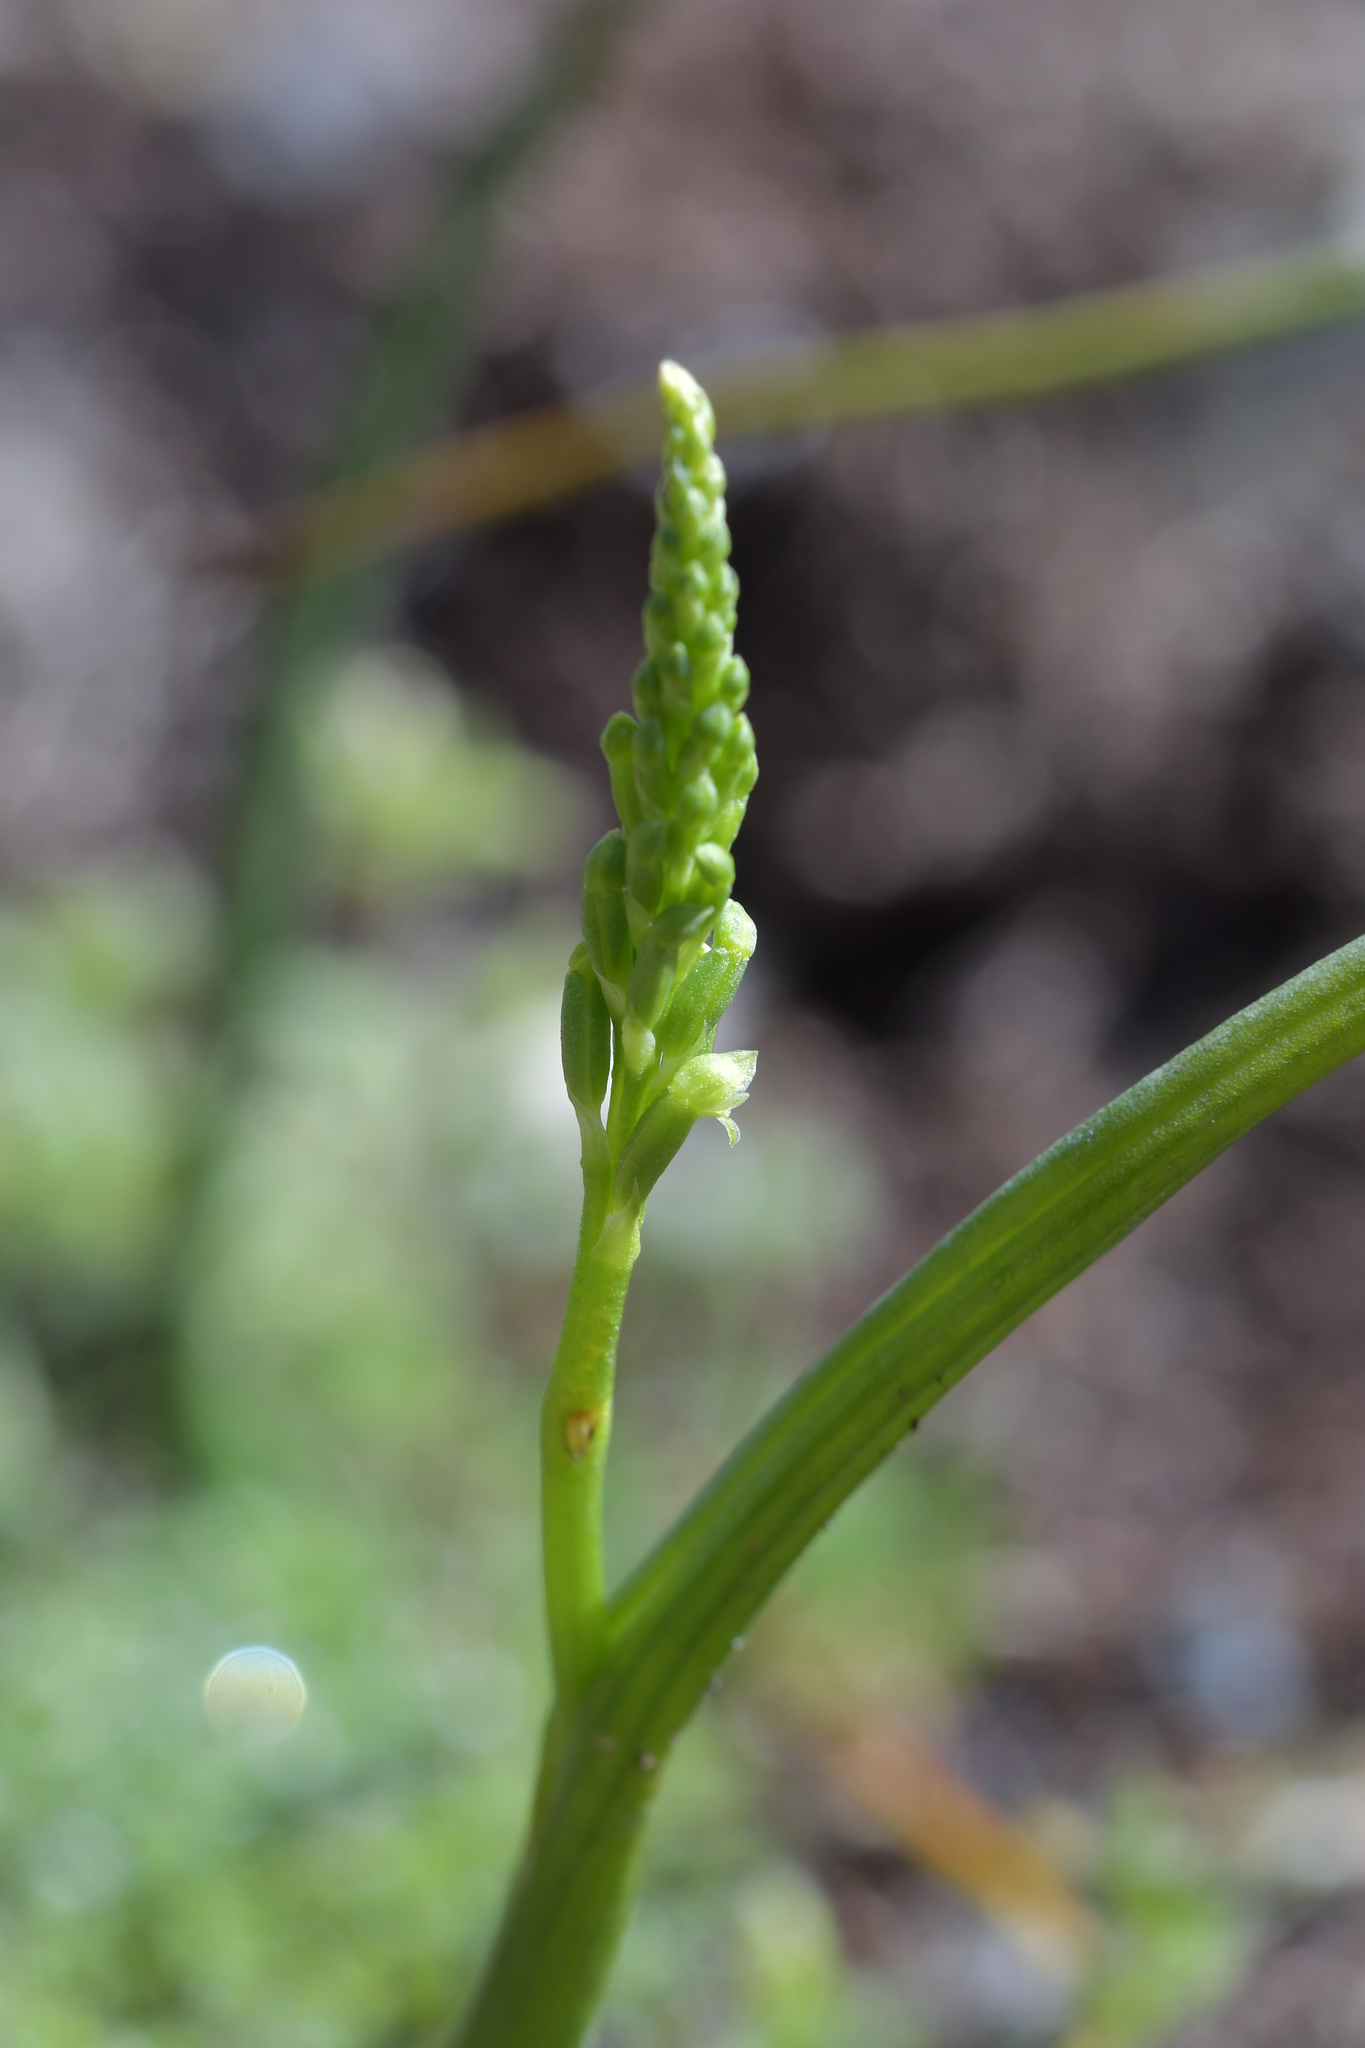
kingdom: Plantae
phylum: Tracheophyta
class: Liliopsida
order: Asparagales
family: Orchidaceae
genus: Microtis
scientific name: Microtis unifolia
